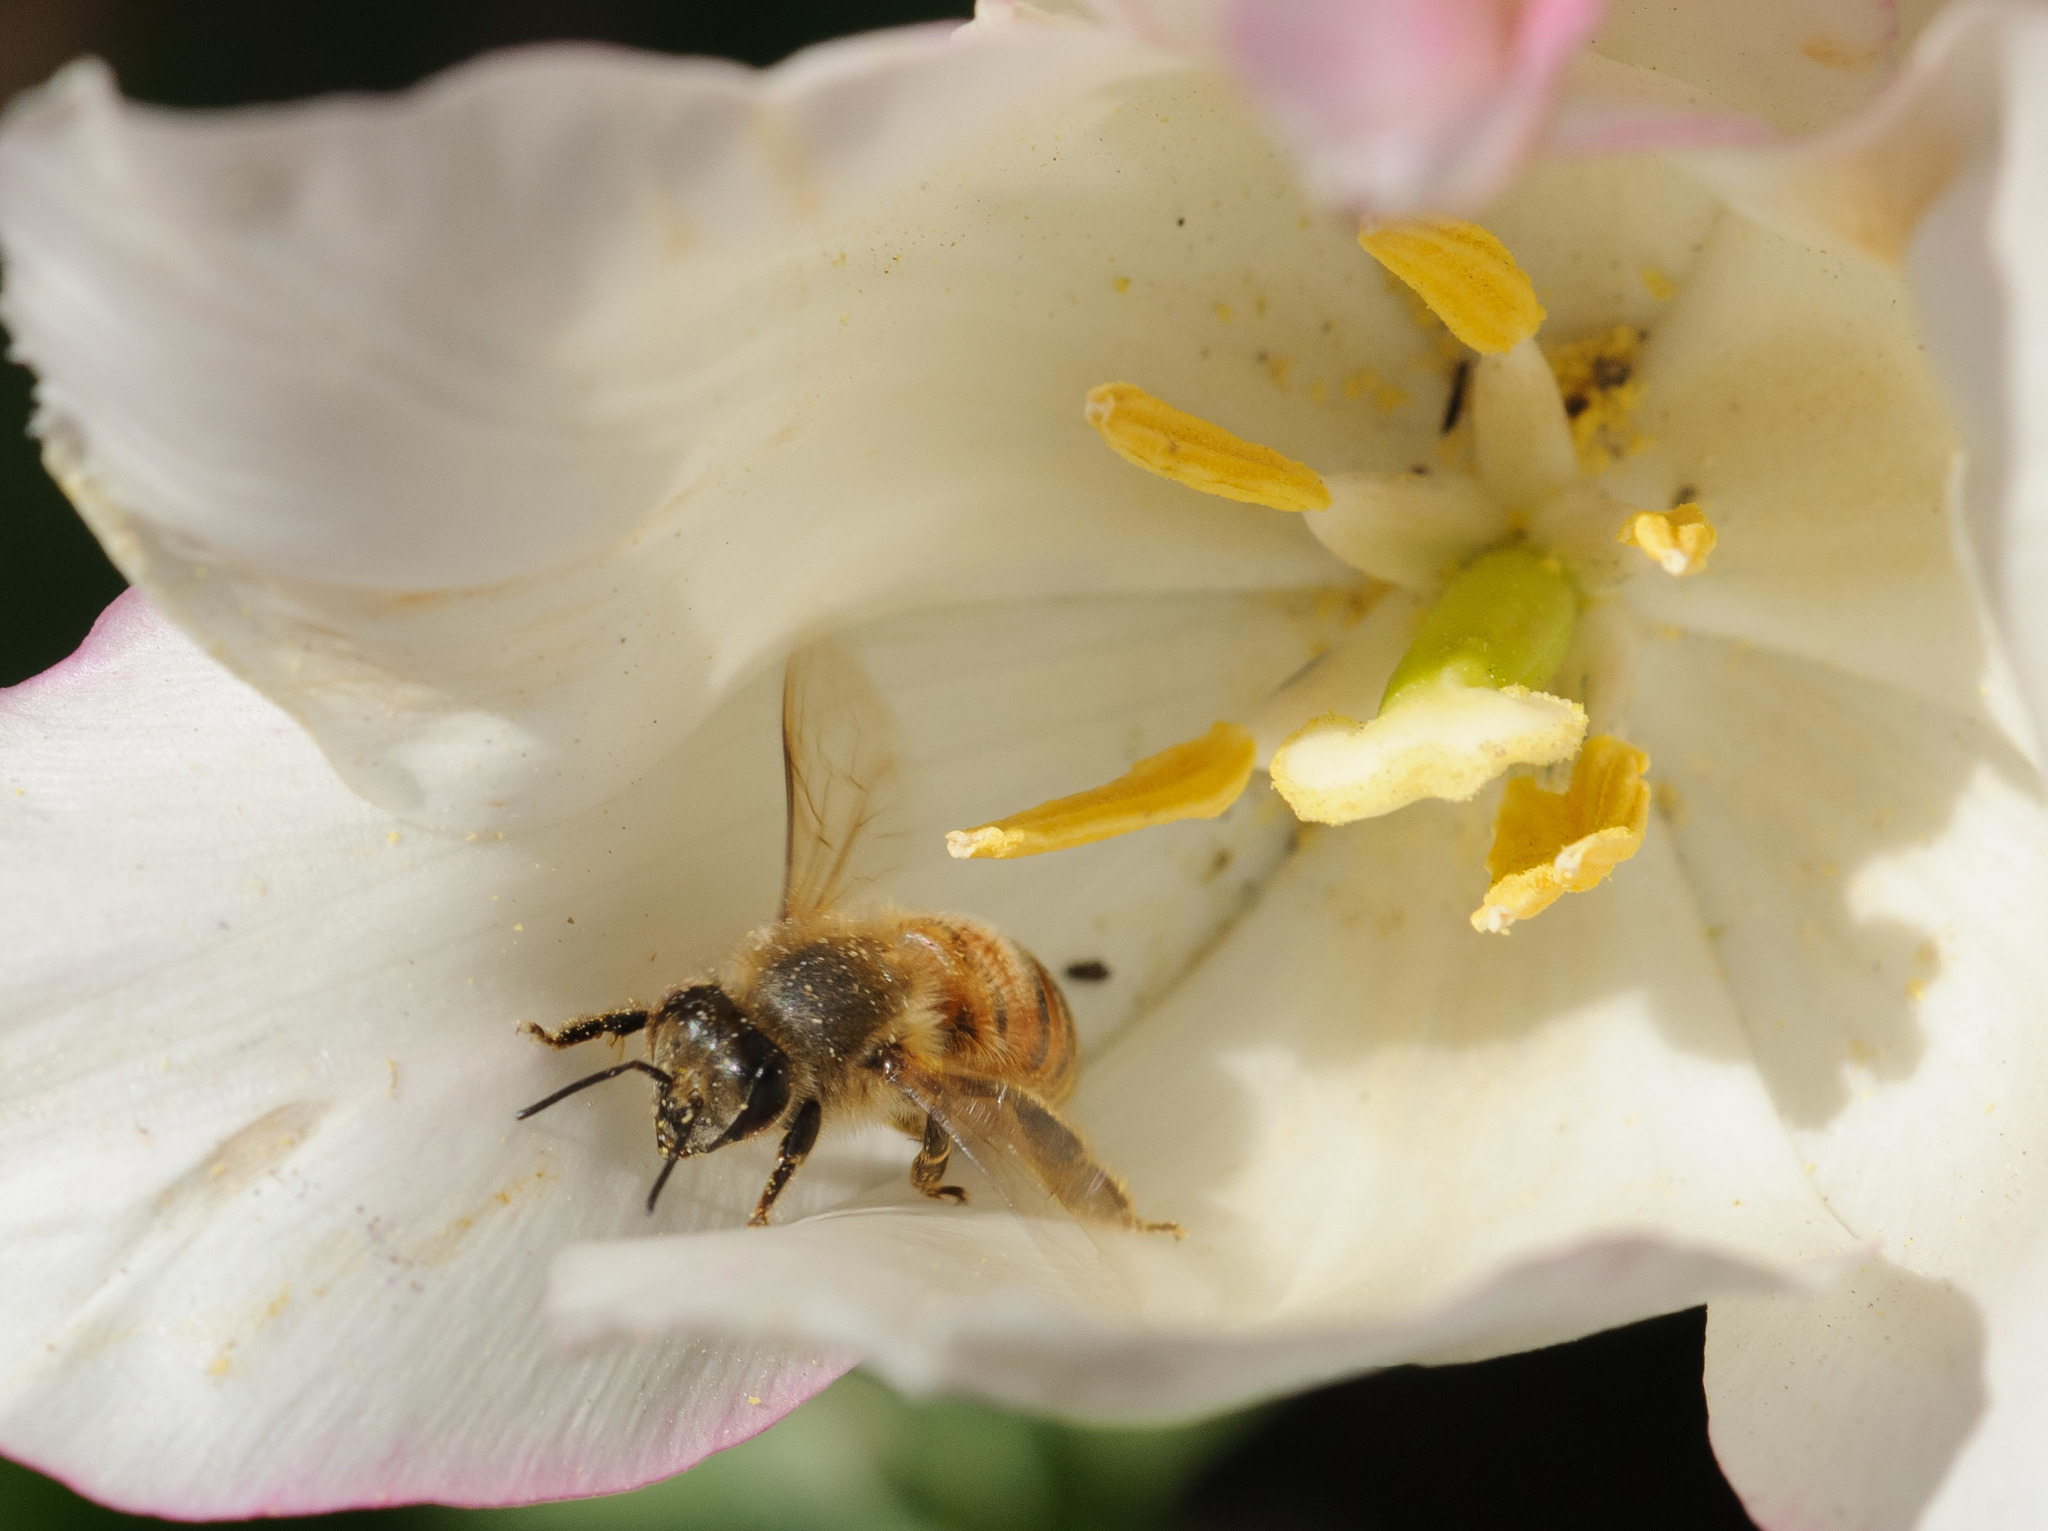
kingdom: Animalia
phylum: Arthropoda
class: Insecta
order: Hymenoptera
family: Apidae
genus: Apis
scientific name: Apis mellifera
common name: Honey bee
